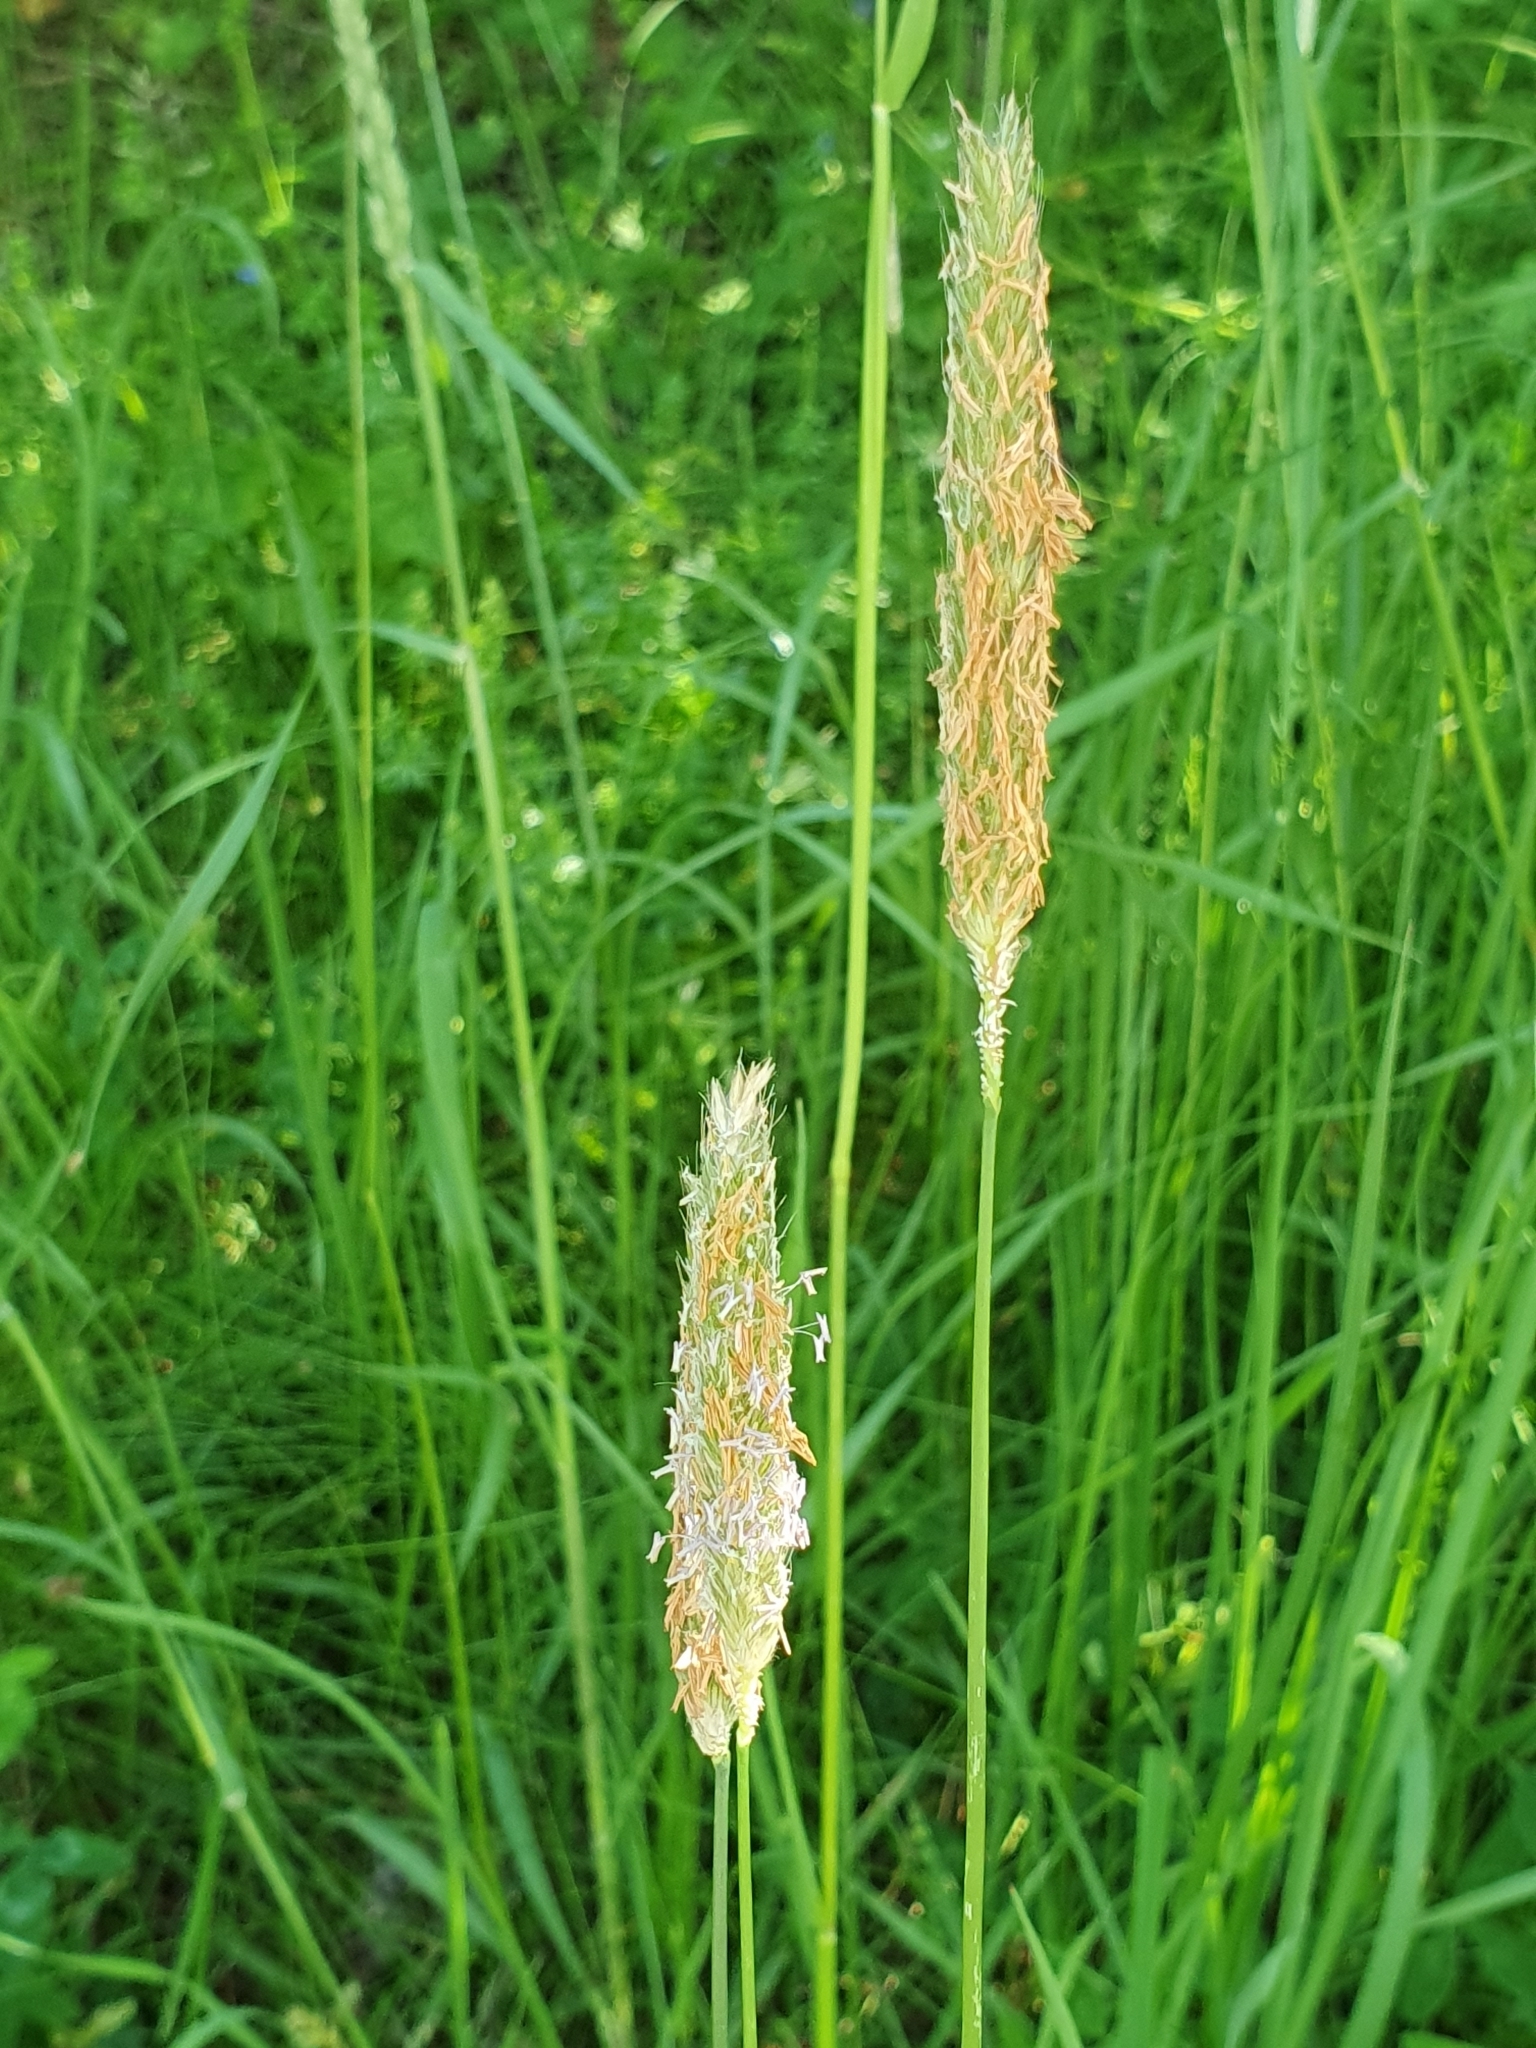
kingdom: Plantae
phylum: Tracheophyta
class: Liliopsida
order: Poales
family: Poaceae
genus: Alopecurus
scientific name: Alopecurus pratensis
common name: Meadow foxtail
